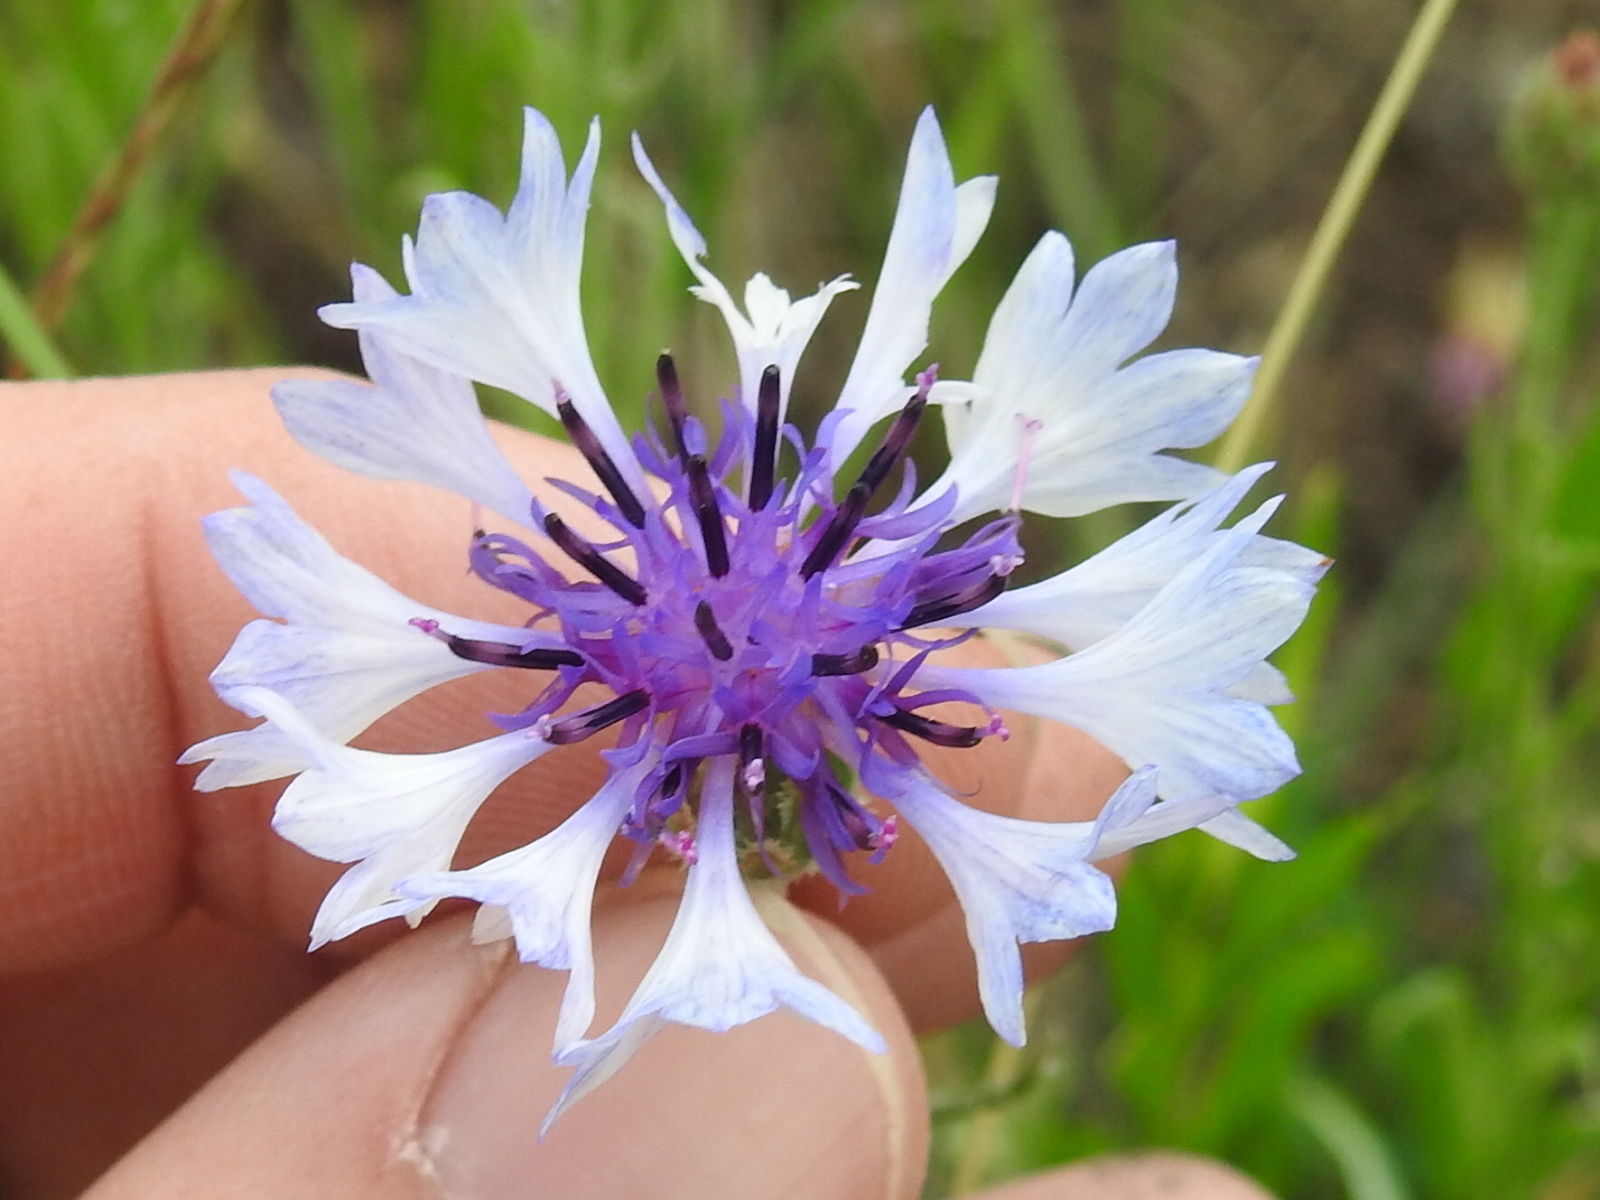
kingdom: Plantae
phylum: Tracheophyta
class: Magnoliopsida
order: Asterales
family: Asteraceae
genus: Centaurea
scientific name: Centaurea cyanus
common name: Cornflower
